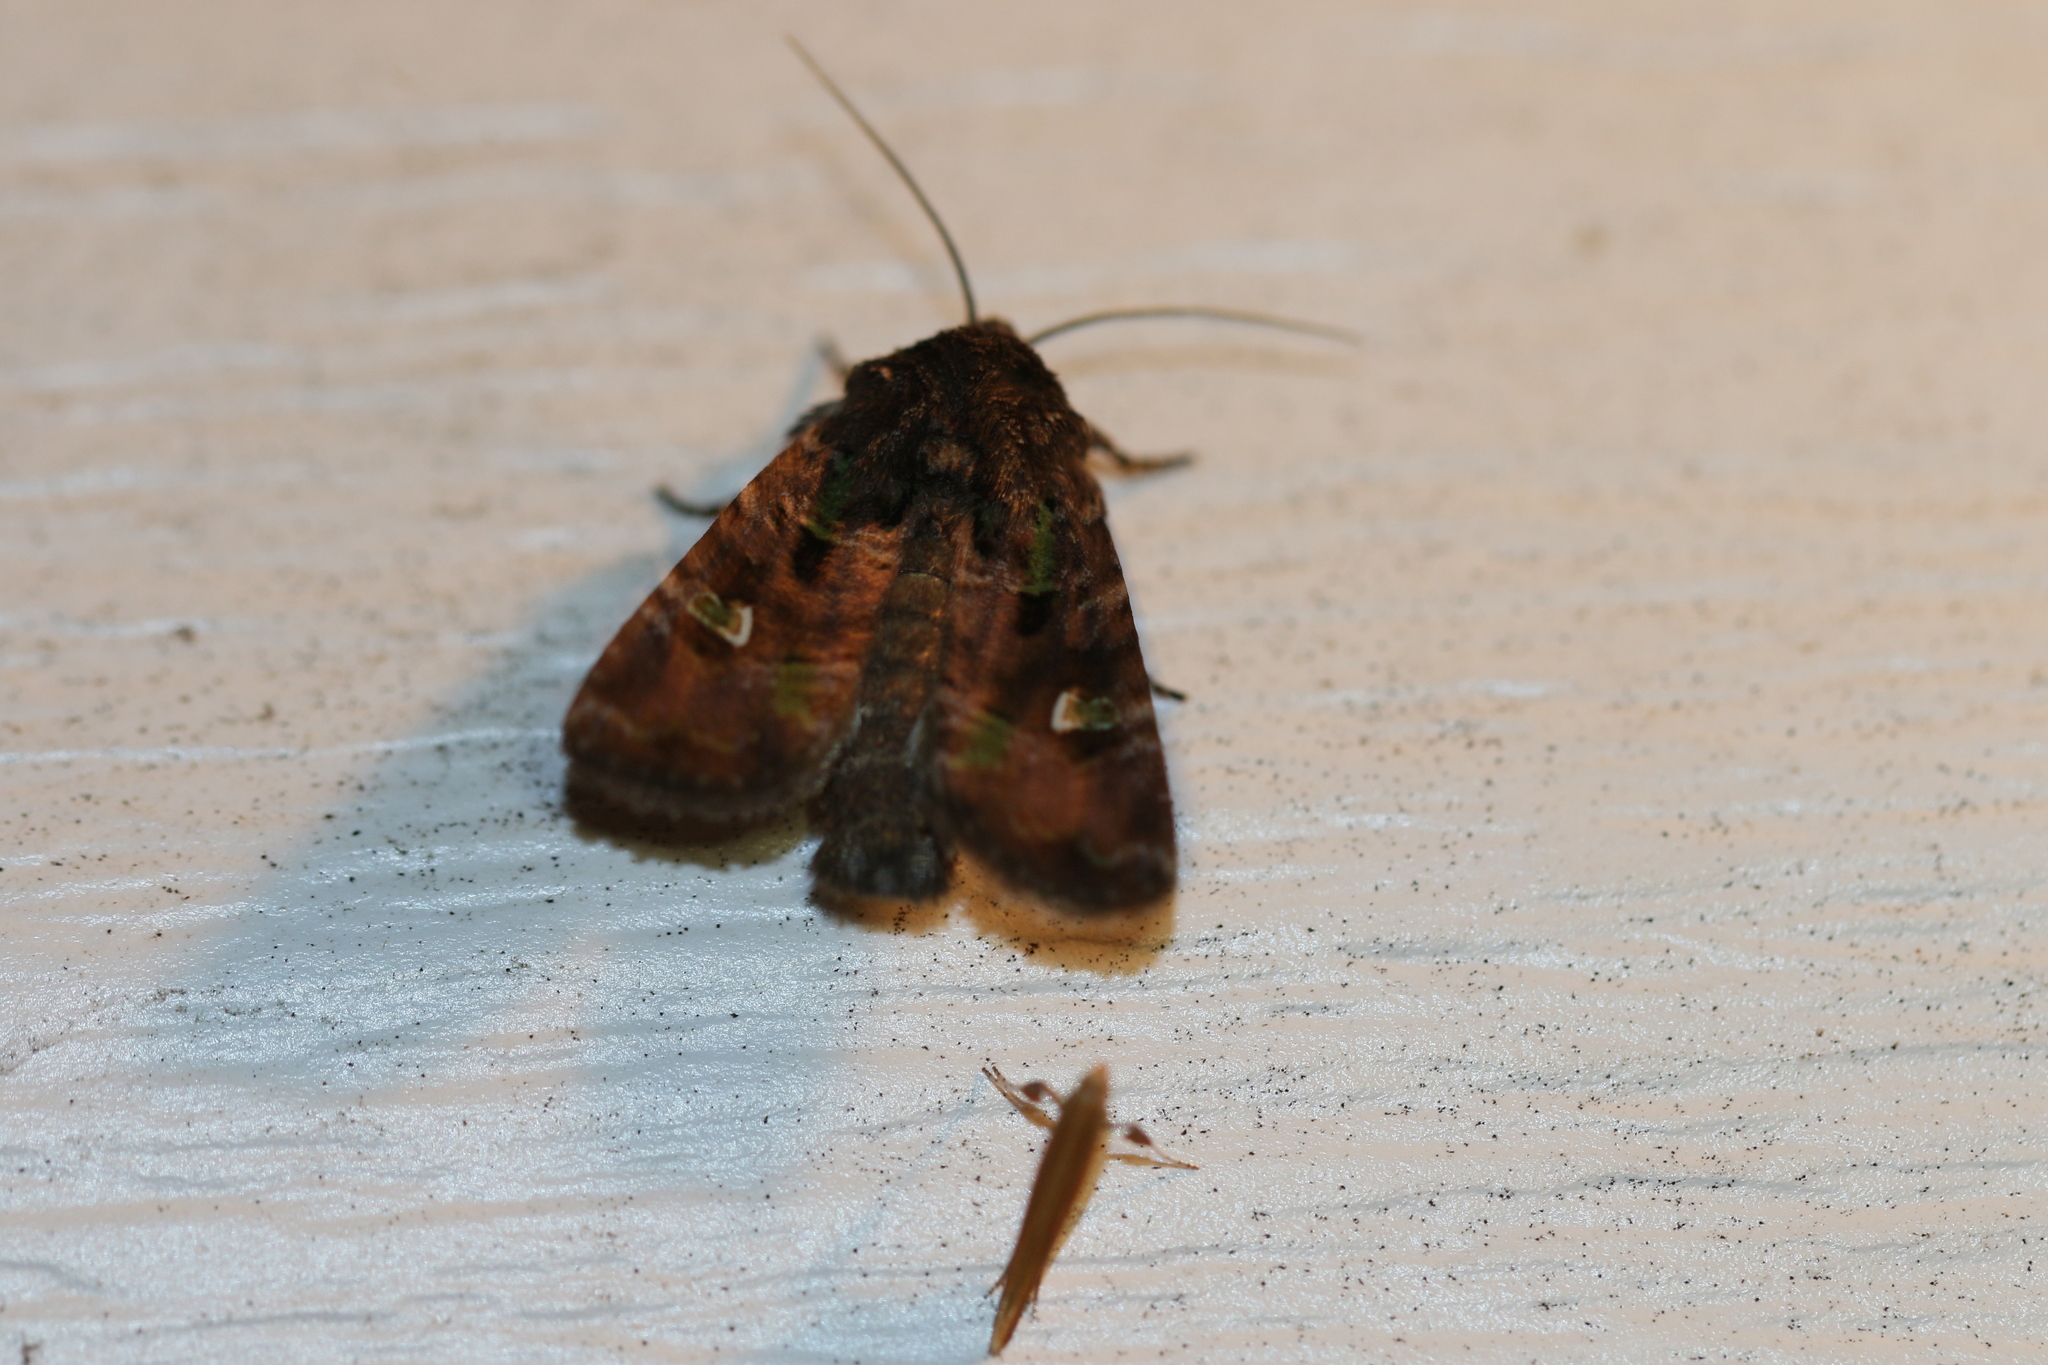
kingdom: Animalia
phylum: Arthropoda
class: Insecta
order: Lepidoptera
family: Noctuidae
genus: Lacinipolia
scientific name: Lacinipolia renigera
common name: Kidney-spotted minor
